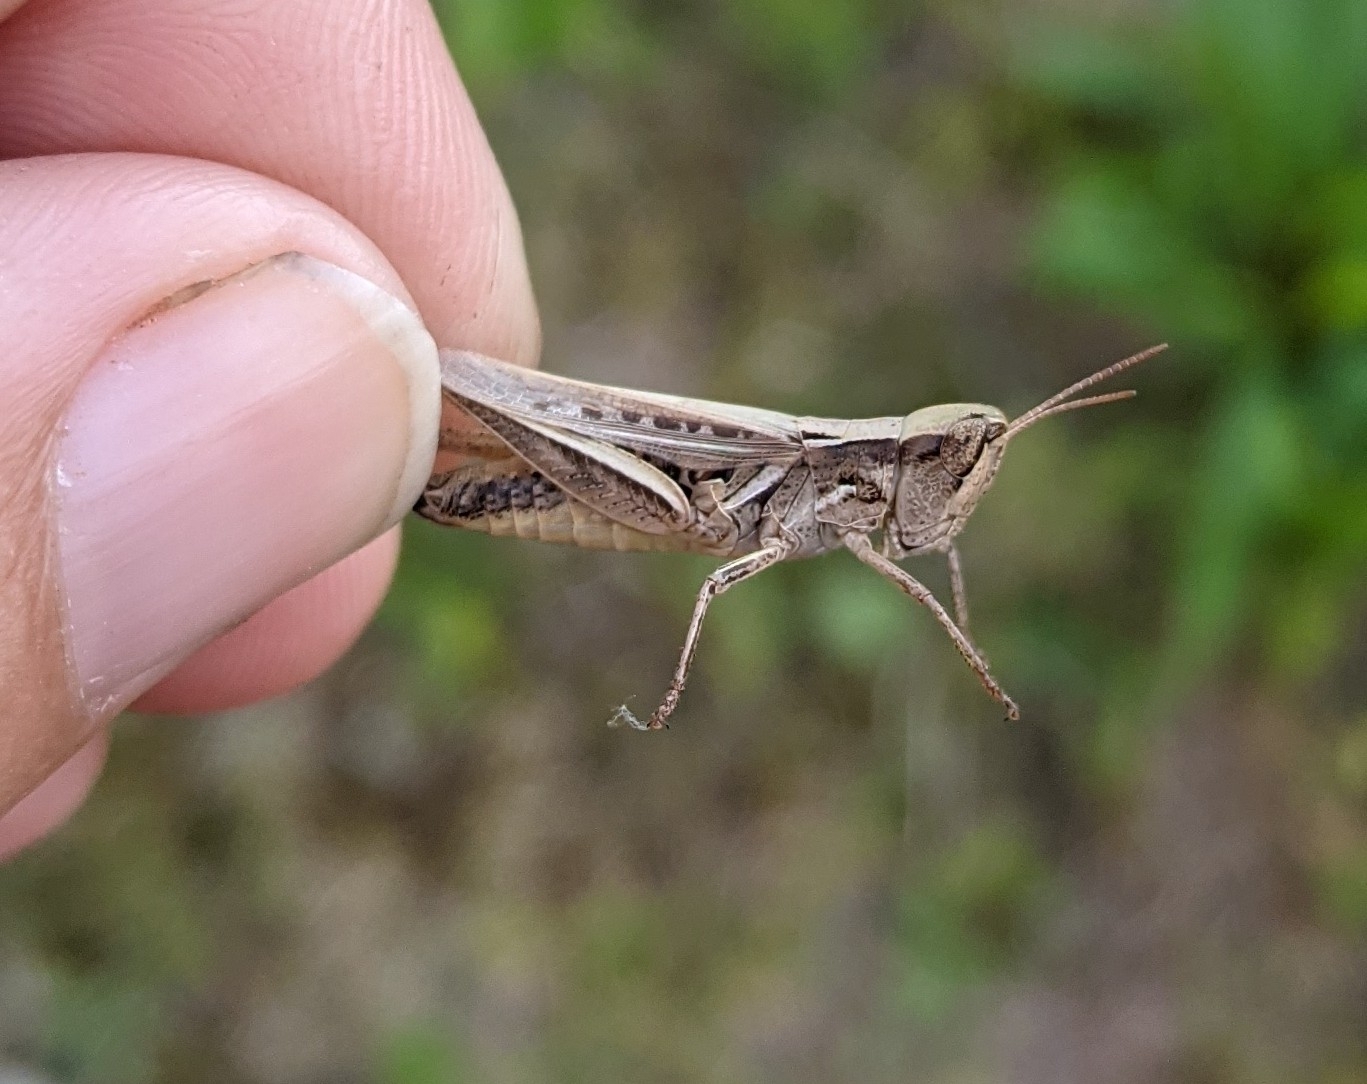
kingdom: Animalia
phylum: Arthropoda
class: Insecta
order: Orthoptera
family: Acrididae
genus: Orphulella
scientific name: Orphulella speciosa
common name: Pasture grasshopper
